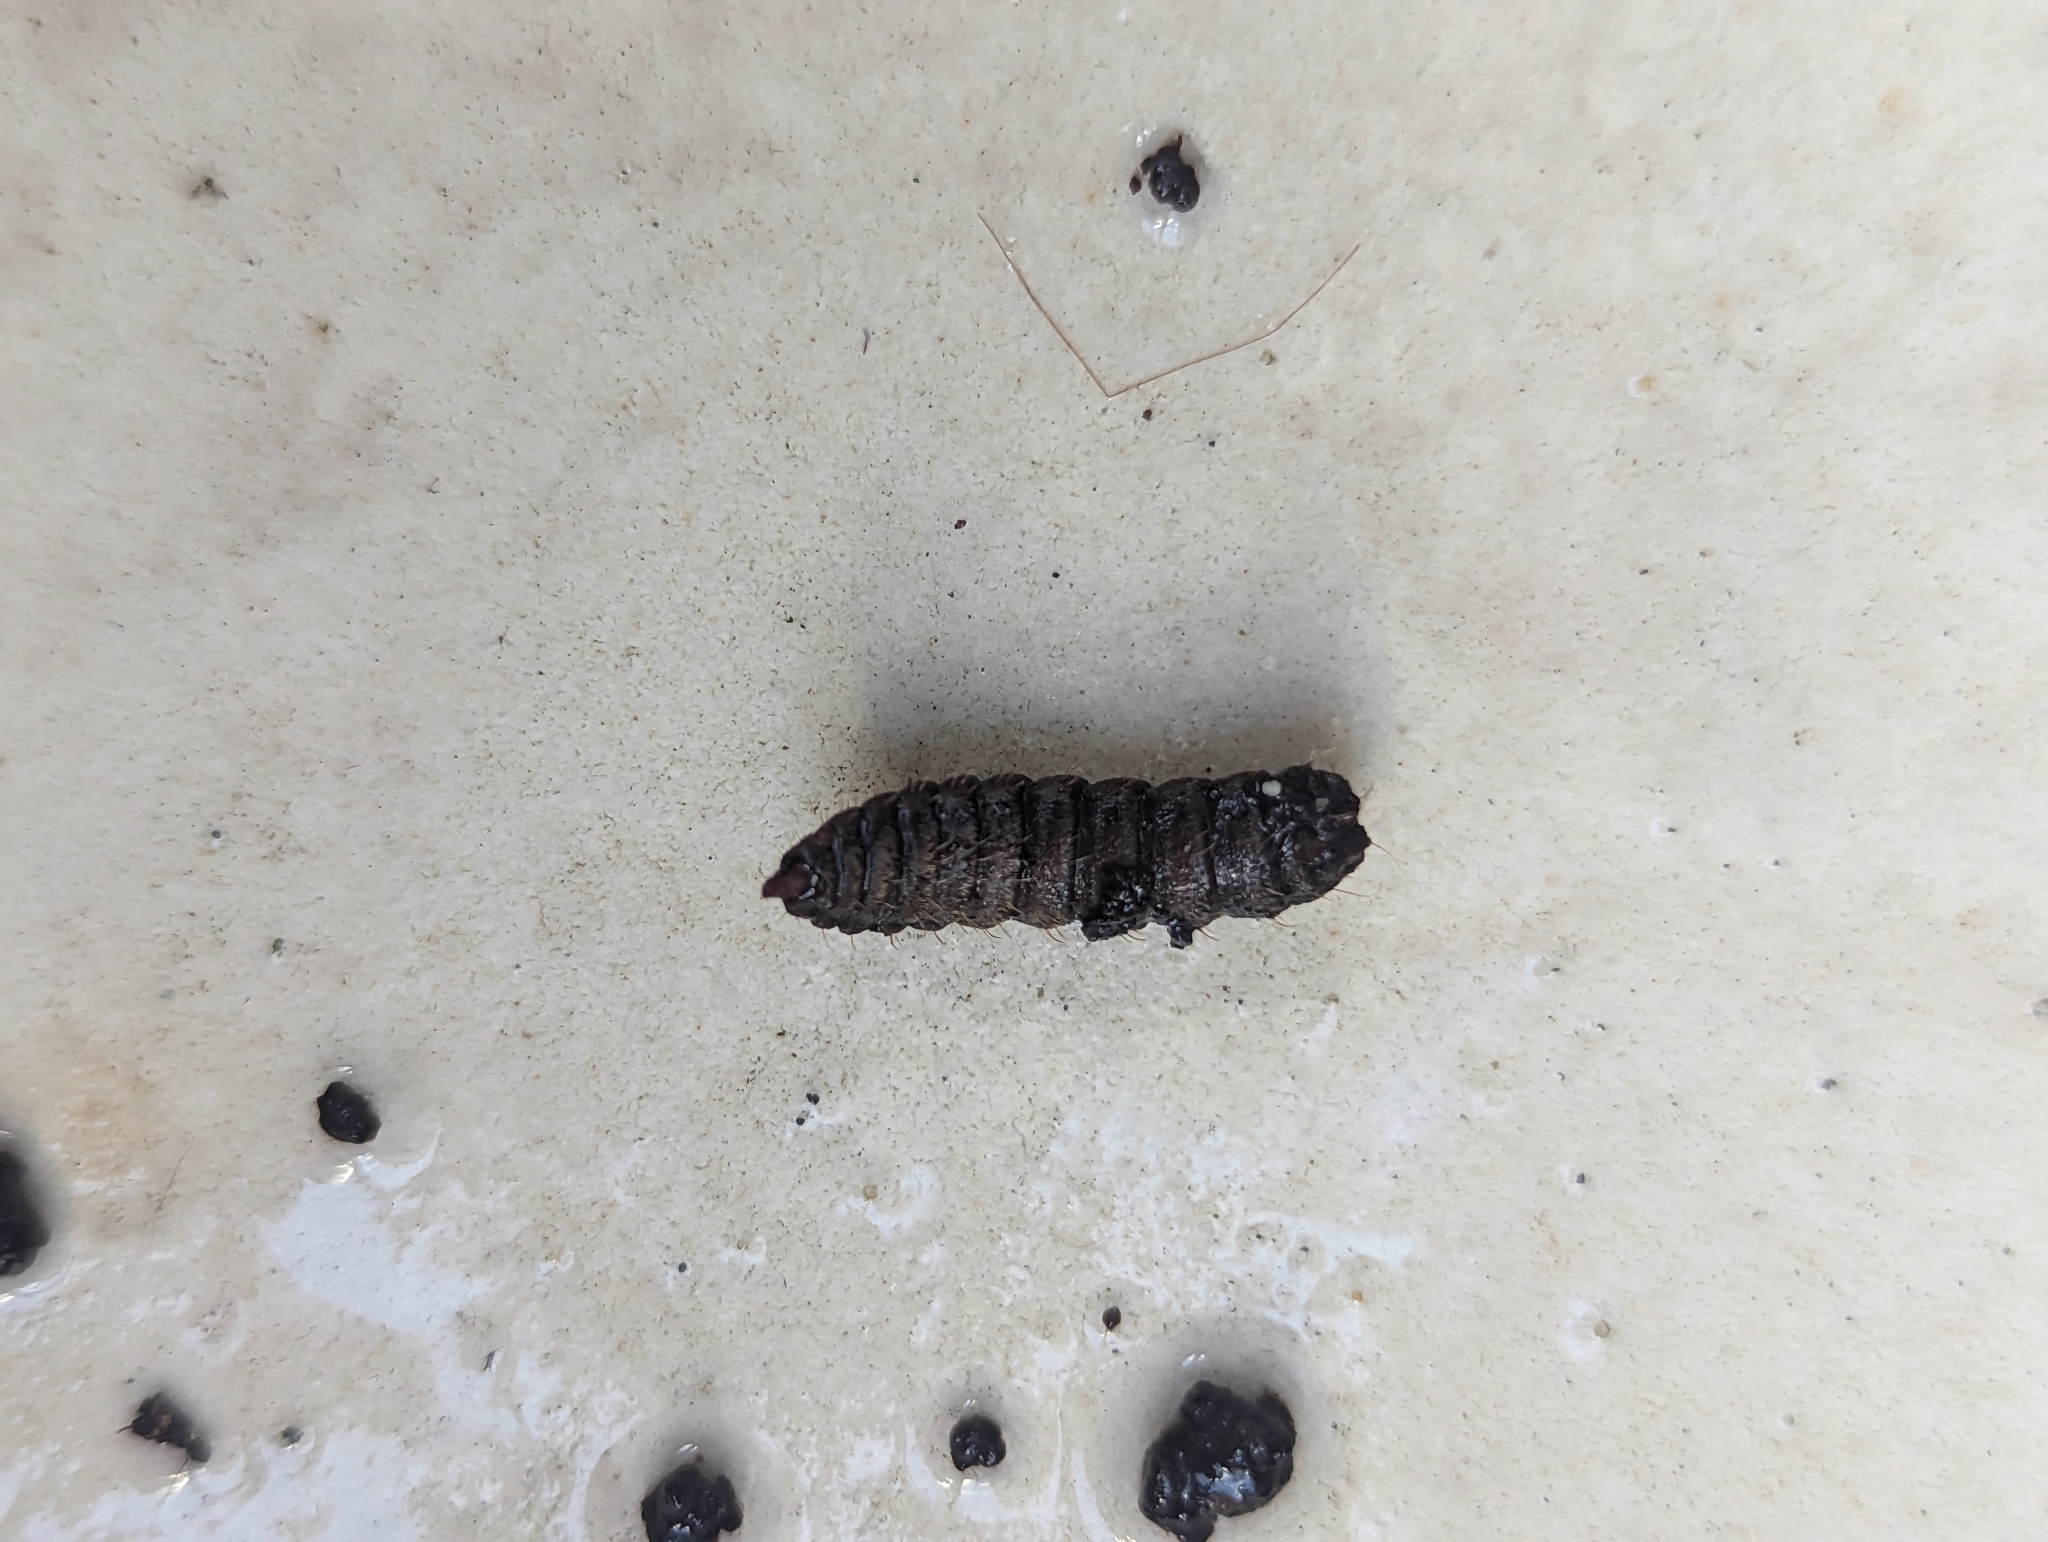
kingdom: Animalia
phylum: Arthropoda
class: Insecta
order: Diptera
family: Stratiomyidae
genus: Hermetia
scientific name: Hermetia illucens
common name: Black soldier fly
